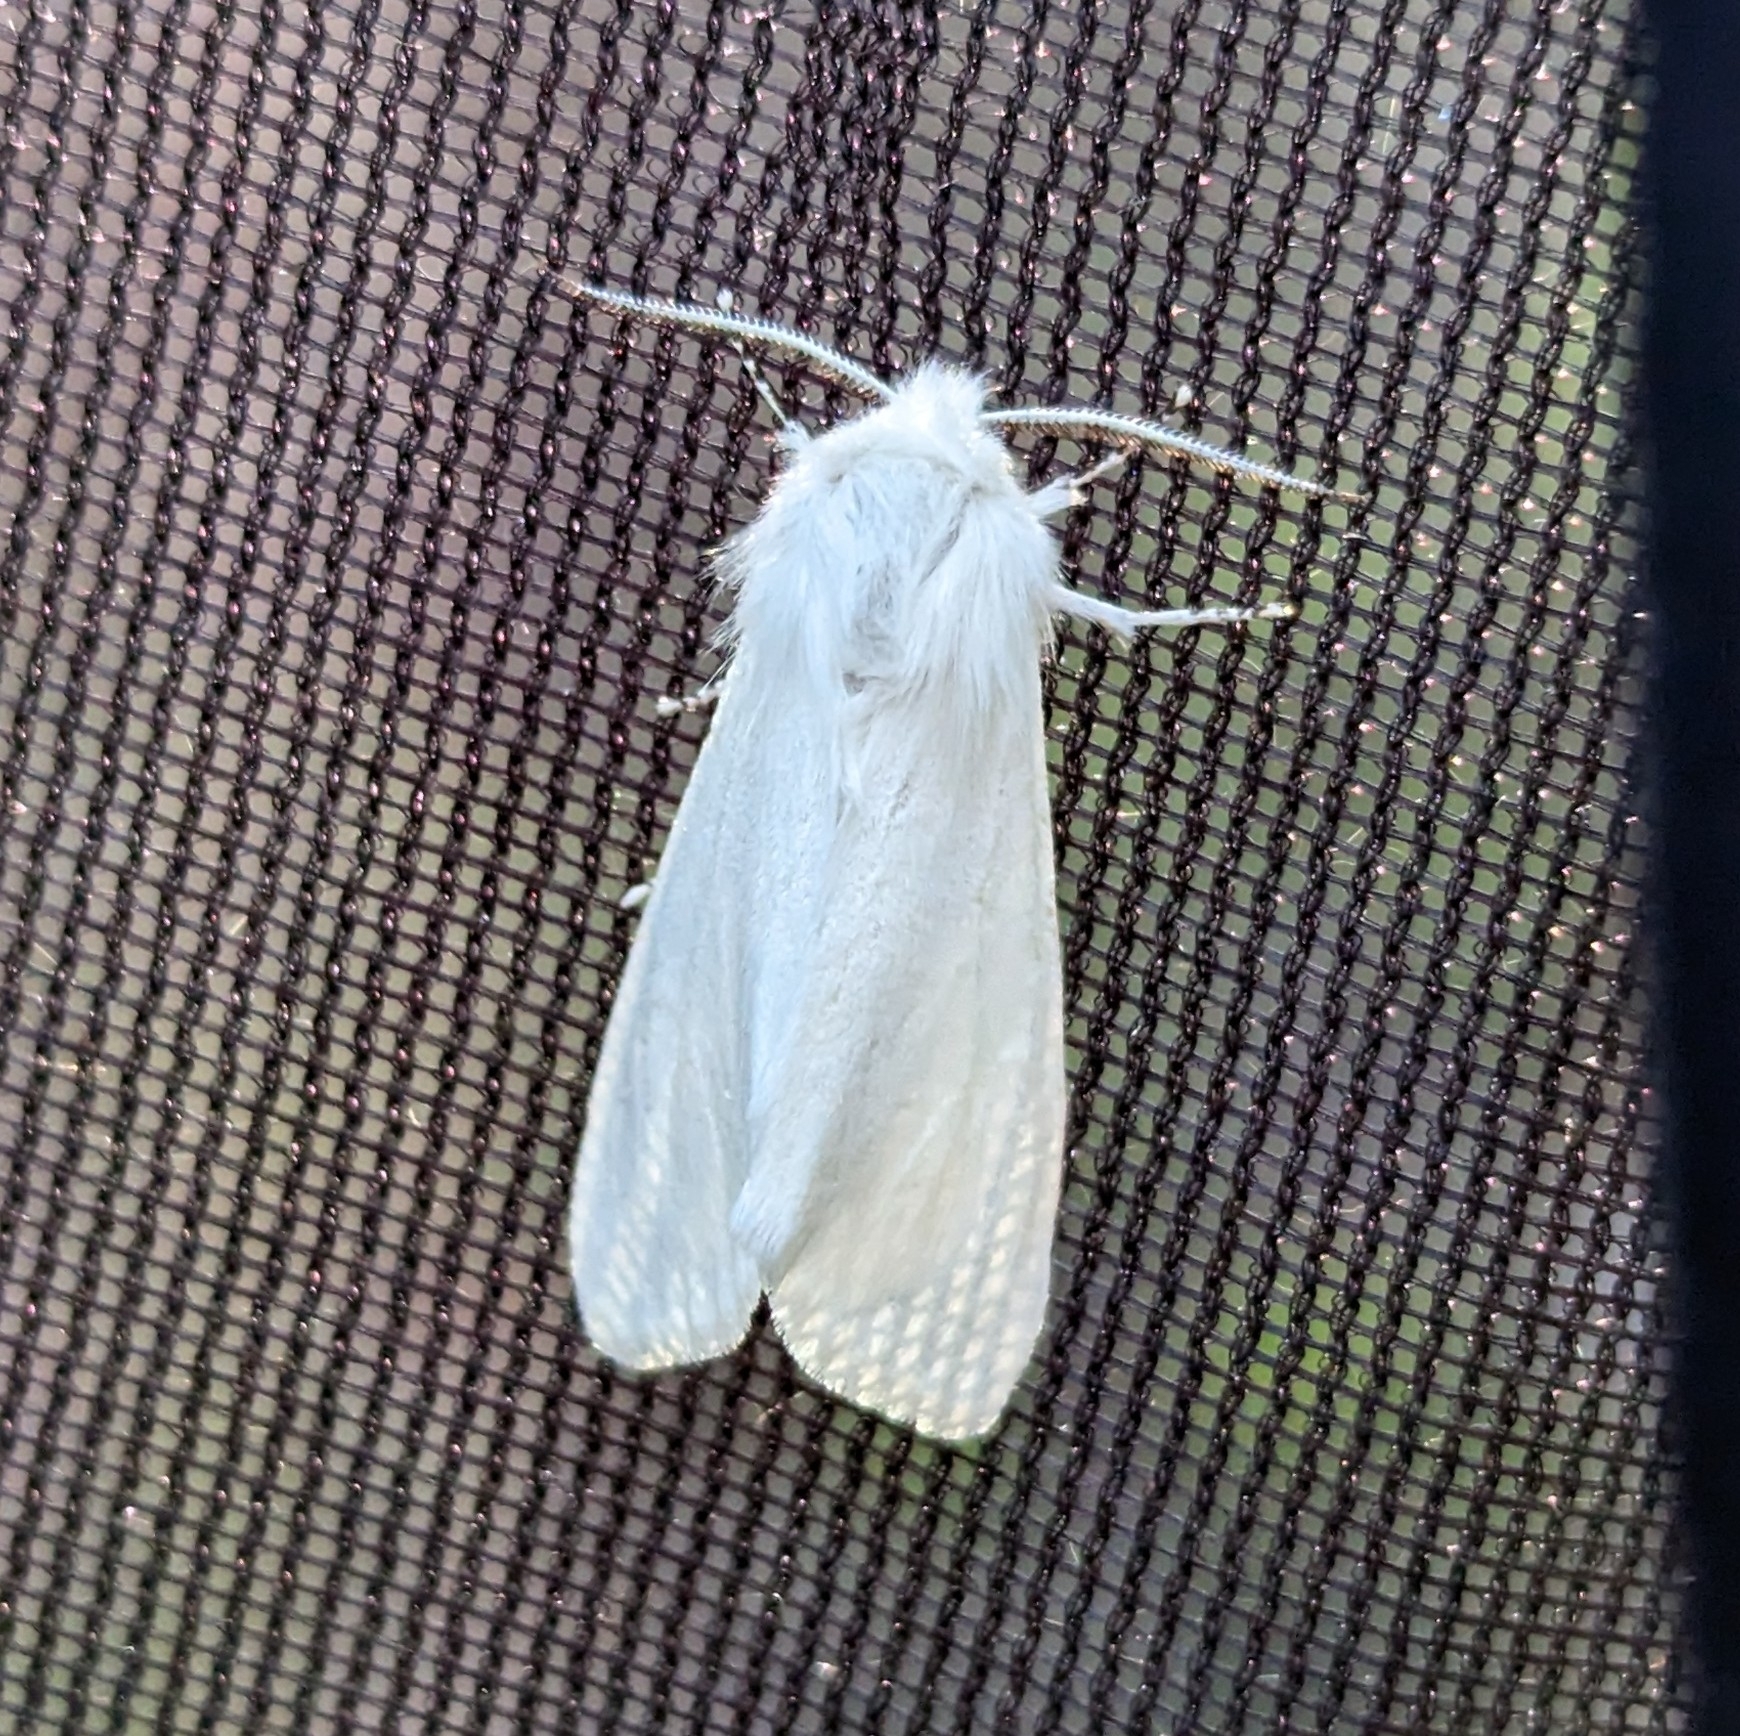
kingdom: Animalia
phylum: Arthropoda
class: Insecta
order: Lepidoptera
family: Erebidae
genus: Hyphantria
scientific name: Hyphantria cunea
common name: American white moth
